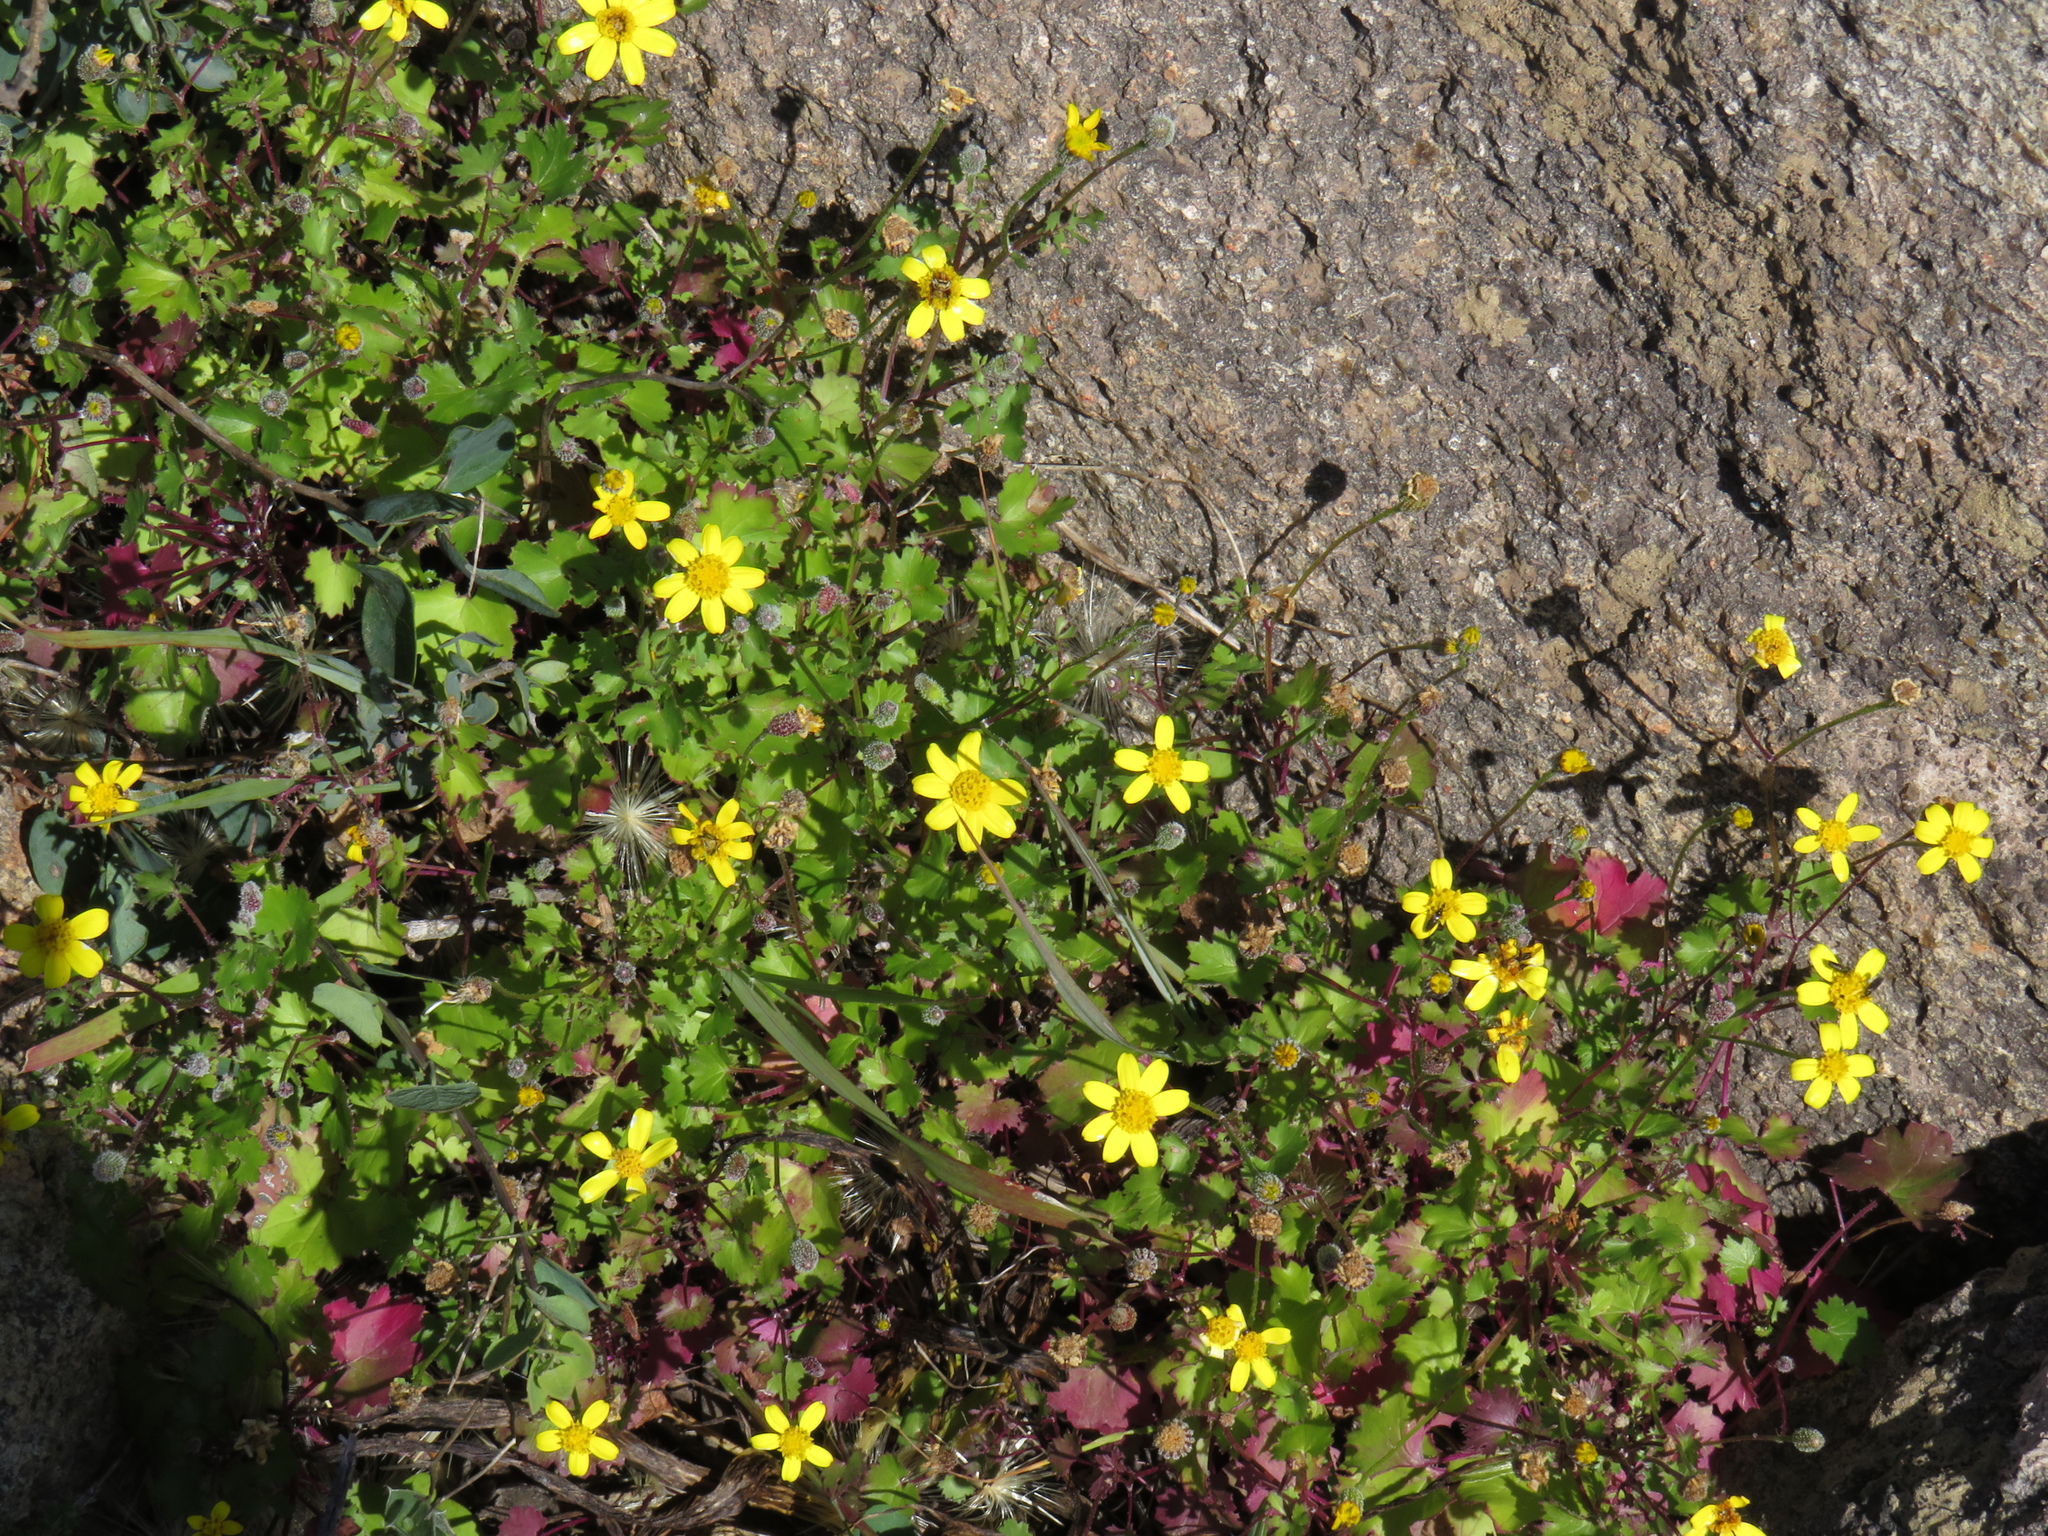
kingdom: Plantae
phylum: Tracheophyta
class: Magnoliopsida
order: Asterales
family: Asteraceae
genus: Cineraria
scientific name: Cineraria angulosa
